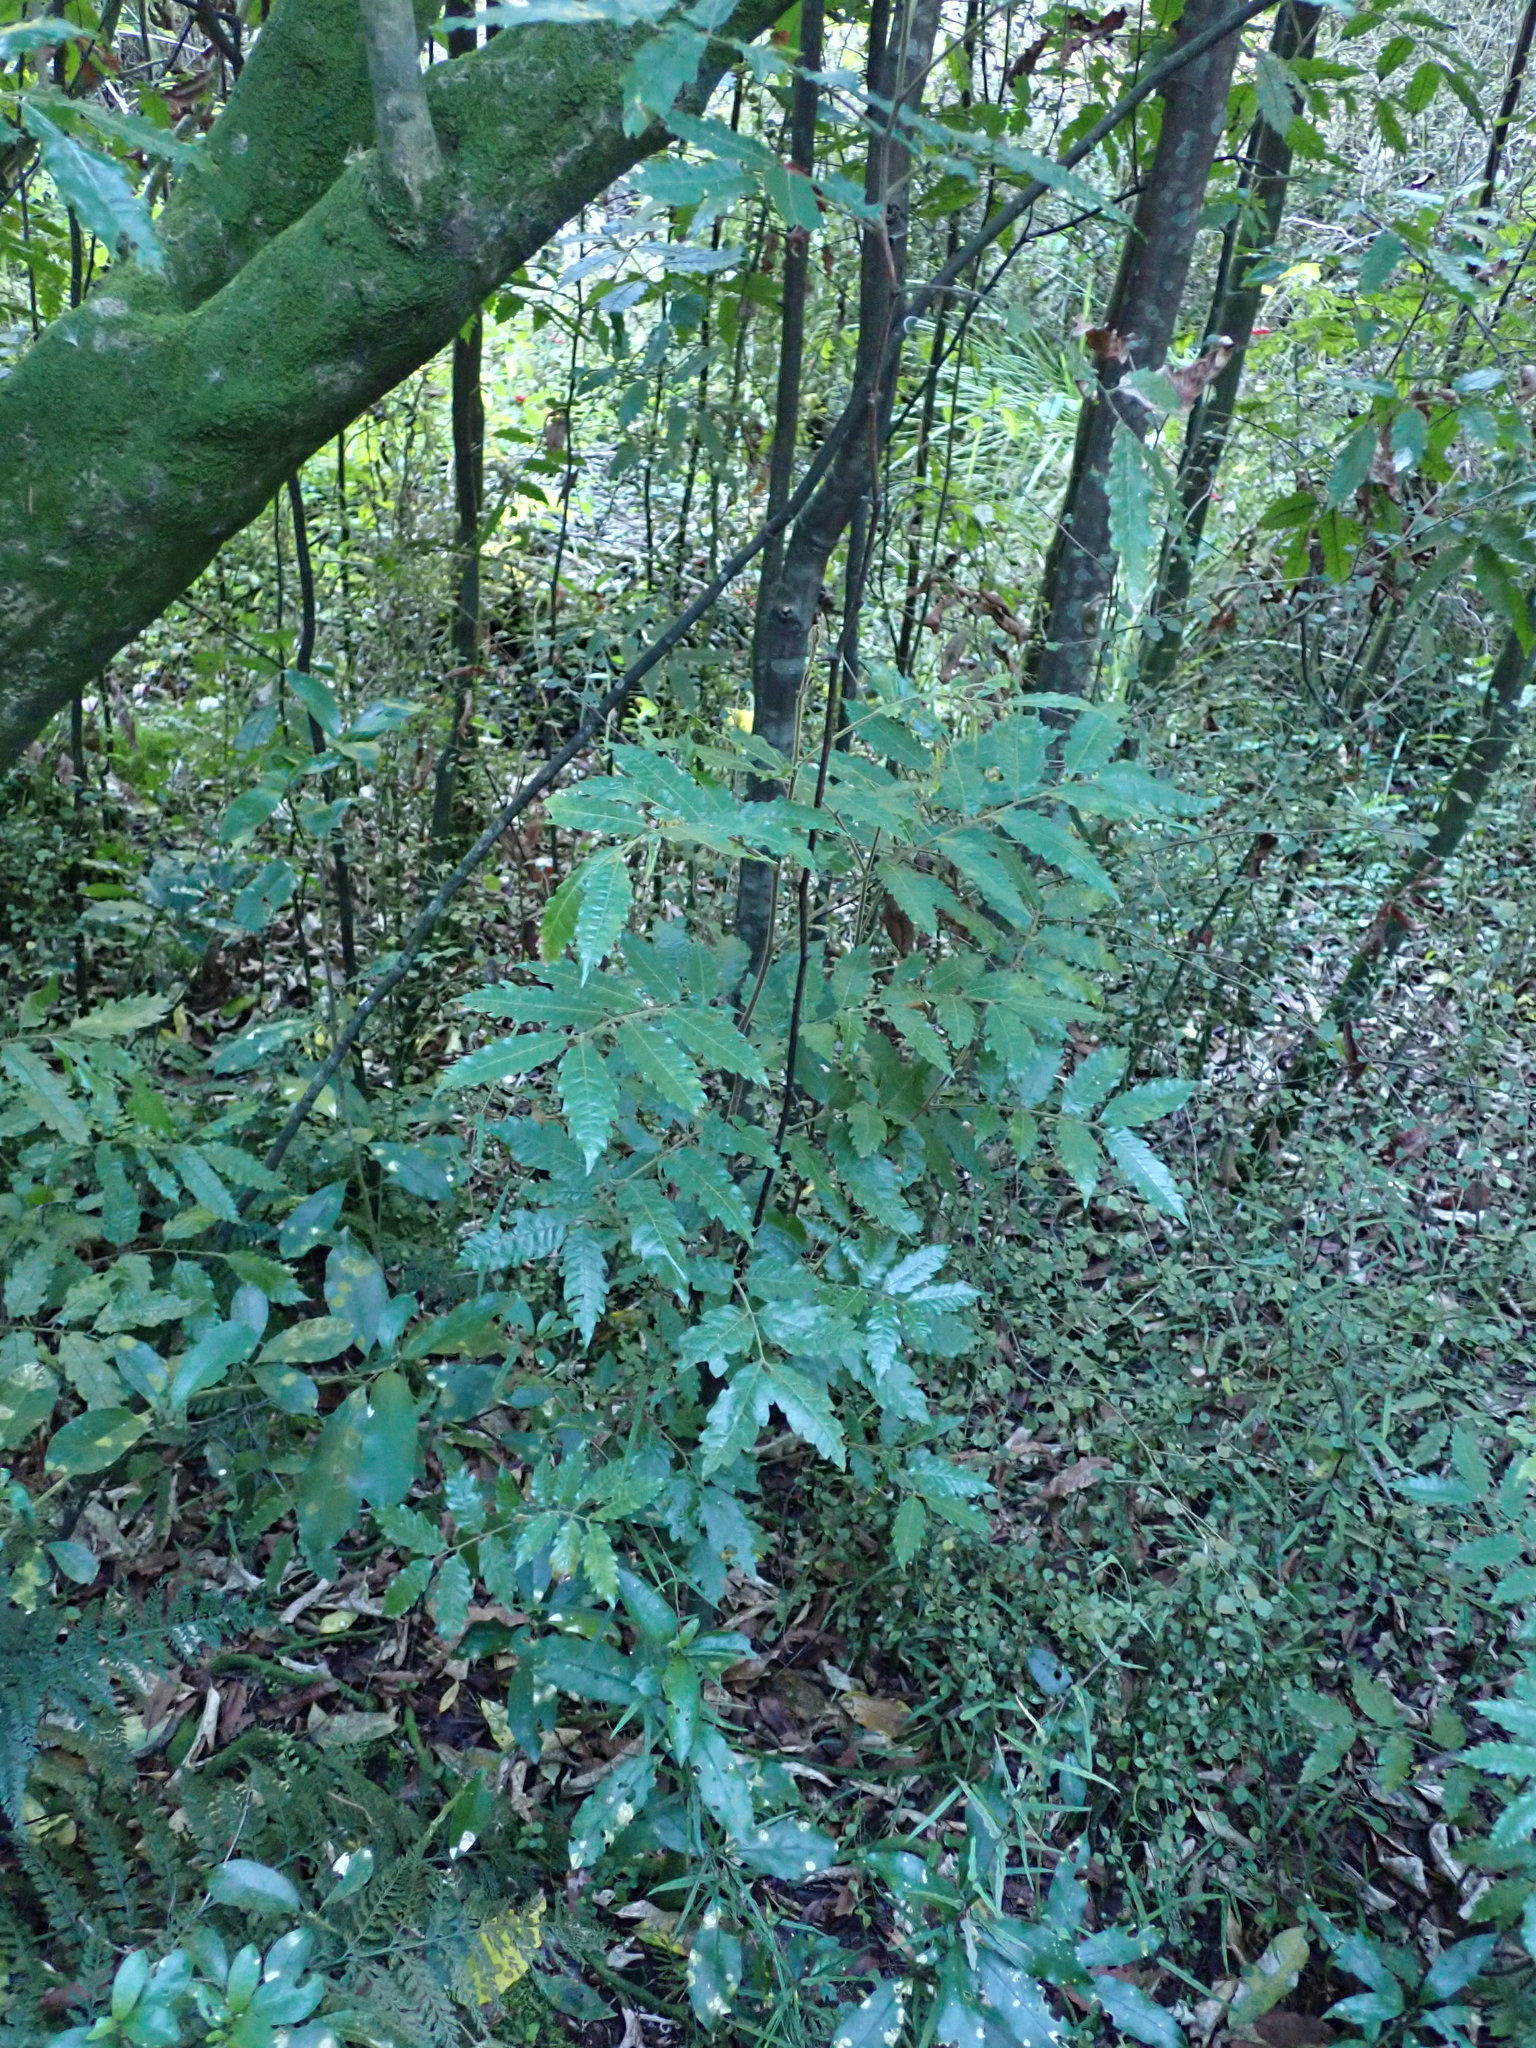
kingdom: Plantae
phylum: Tracheophyta
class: Magnoliopsida
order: Sapindales
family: Sapindaceae
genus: Alectryon
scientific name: Alectryon excelsus
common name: Three kings titoki
